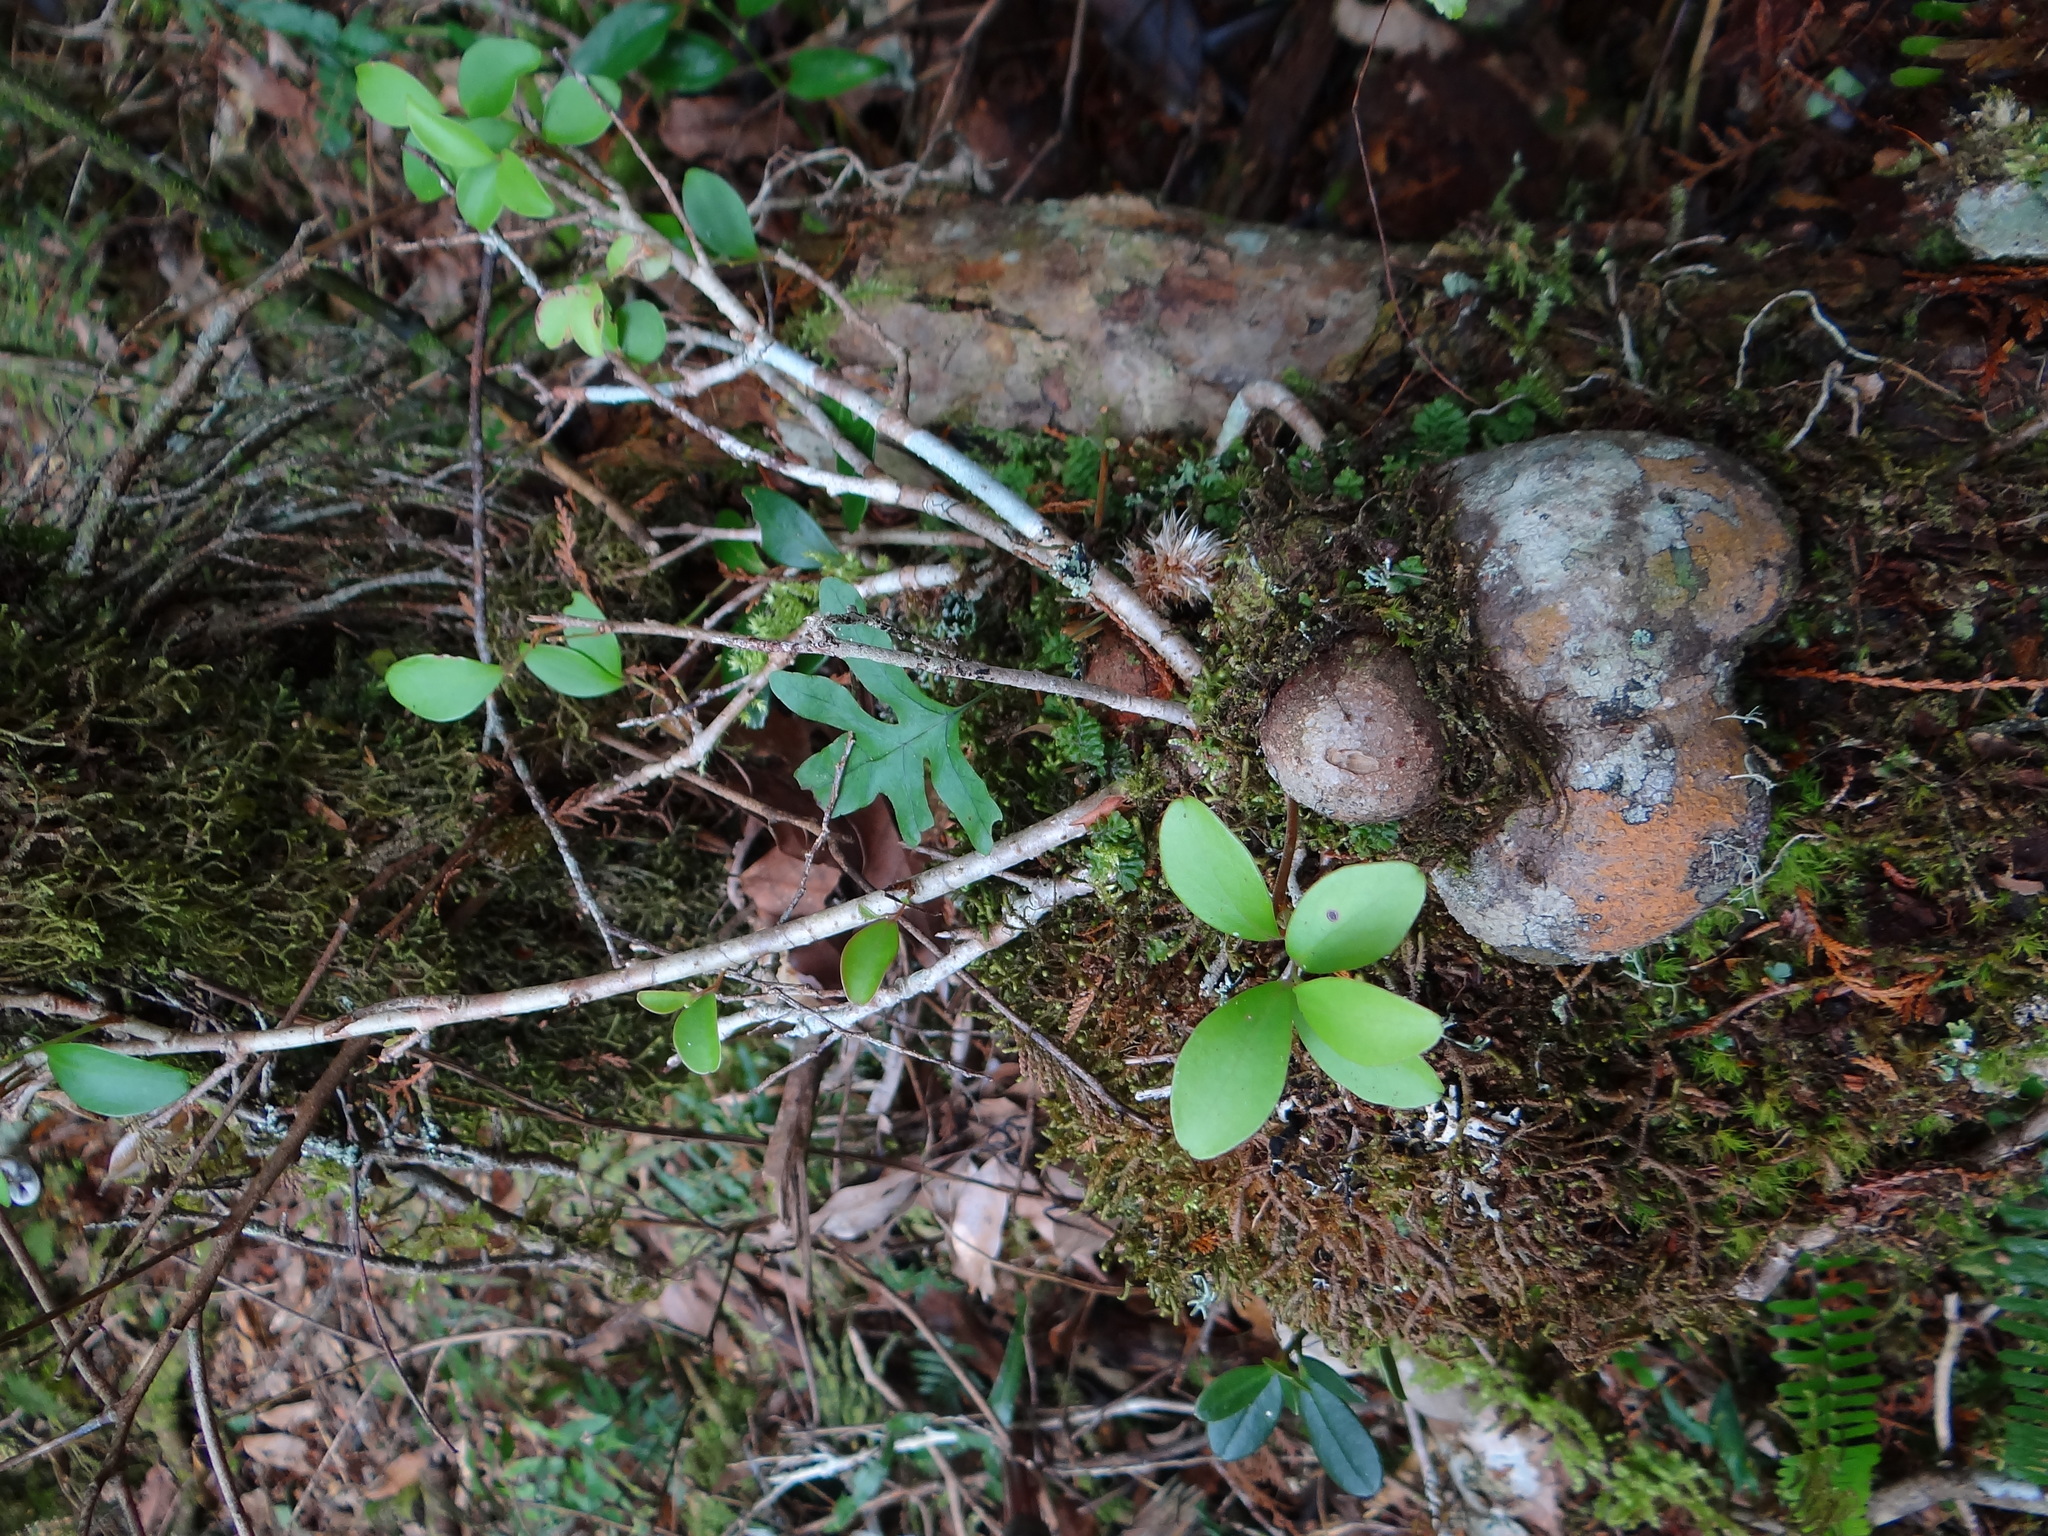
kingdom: Plantae
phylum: Tracheophyta
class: Magnoliopsida
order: Ericales
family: Ericaceae
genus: Vaccinium
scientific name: Vaccinium emarginatum
